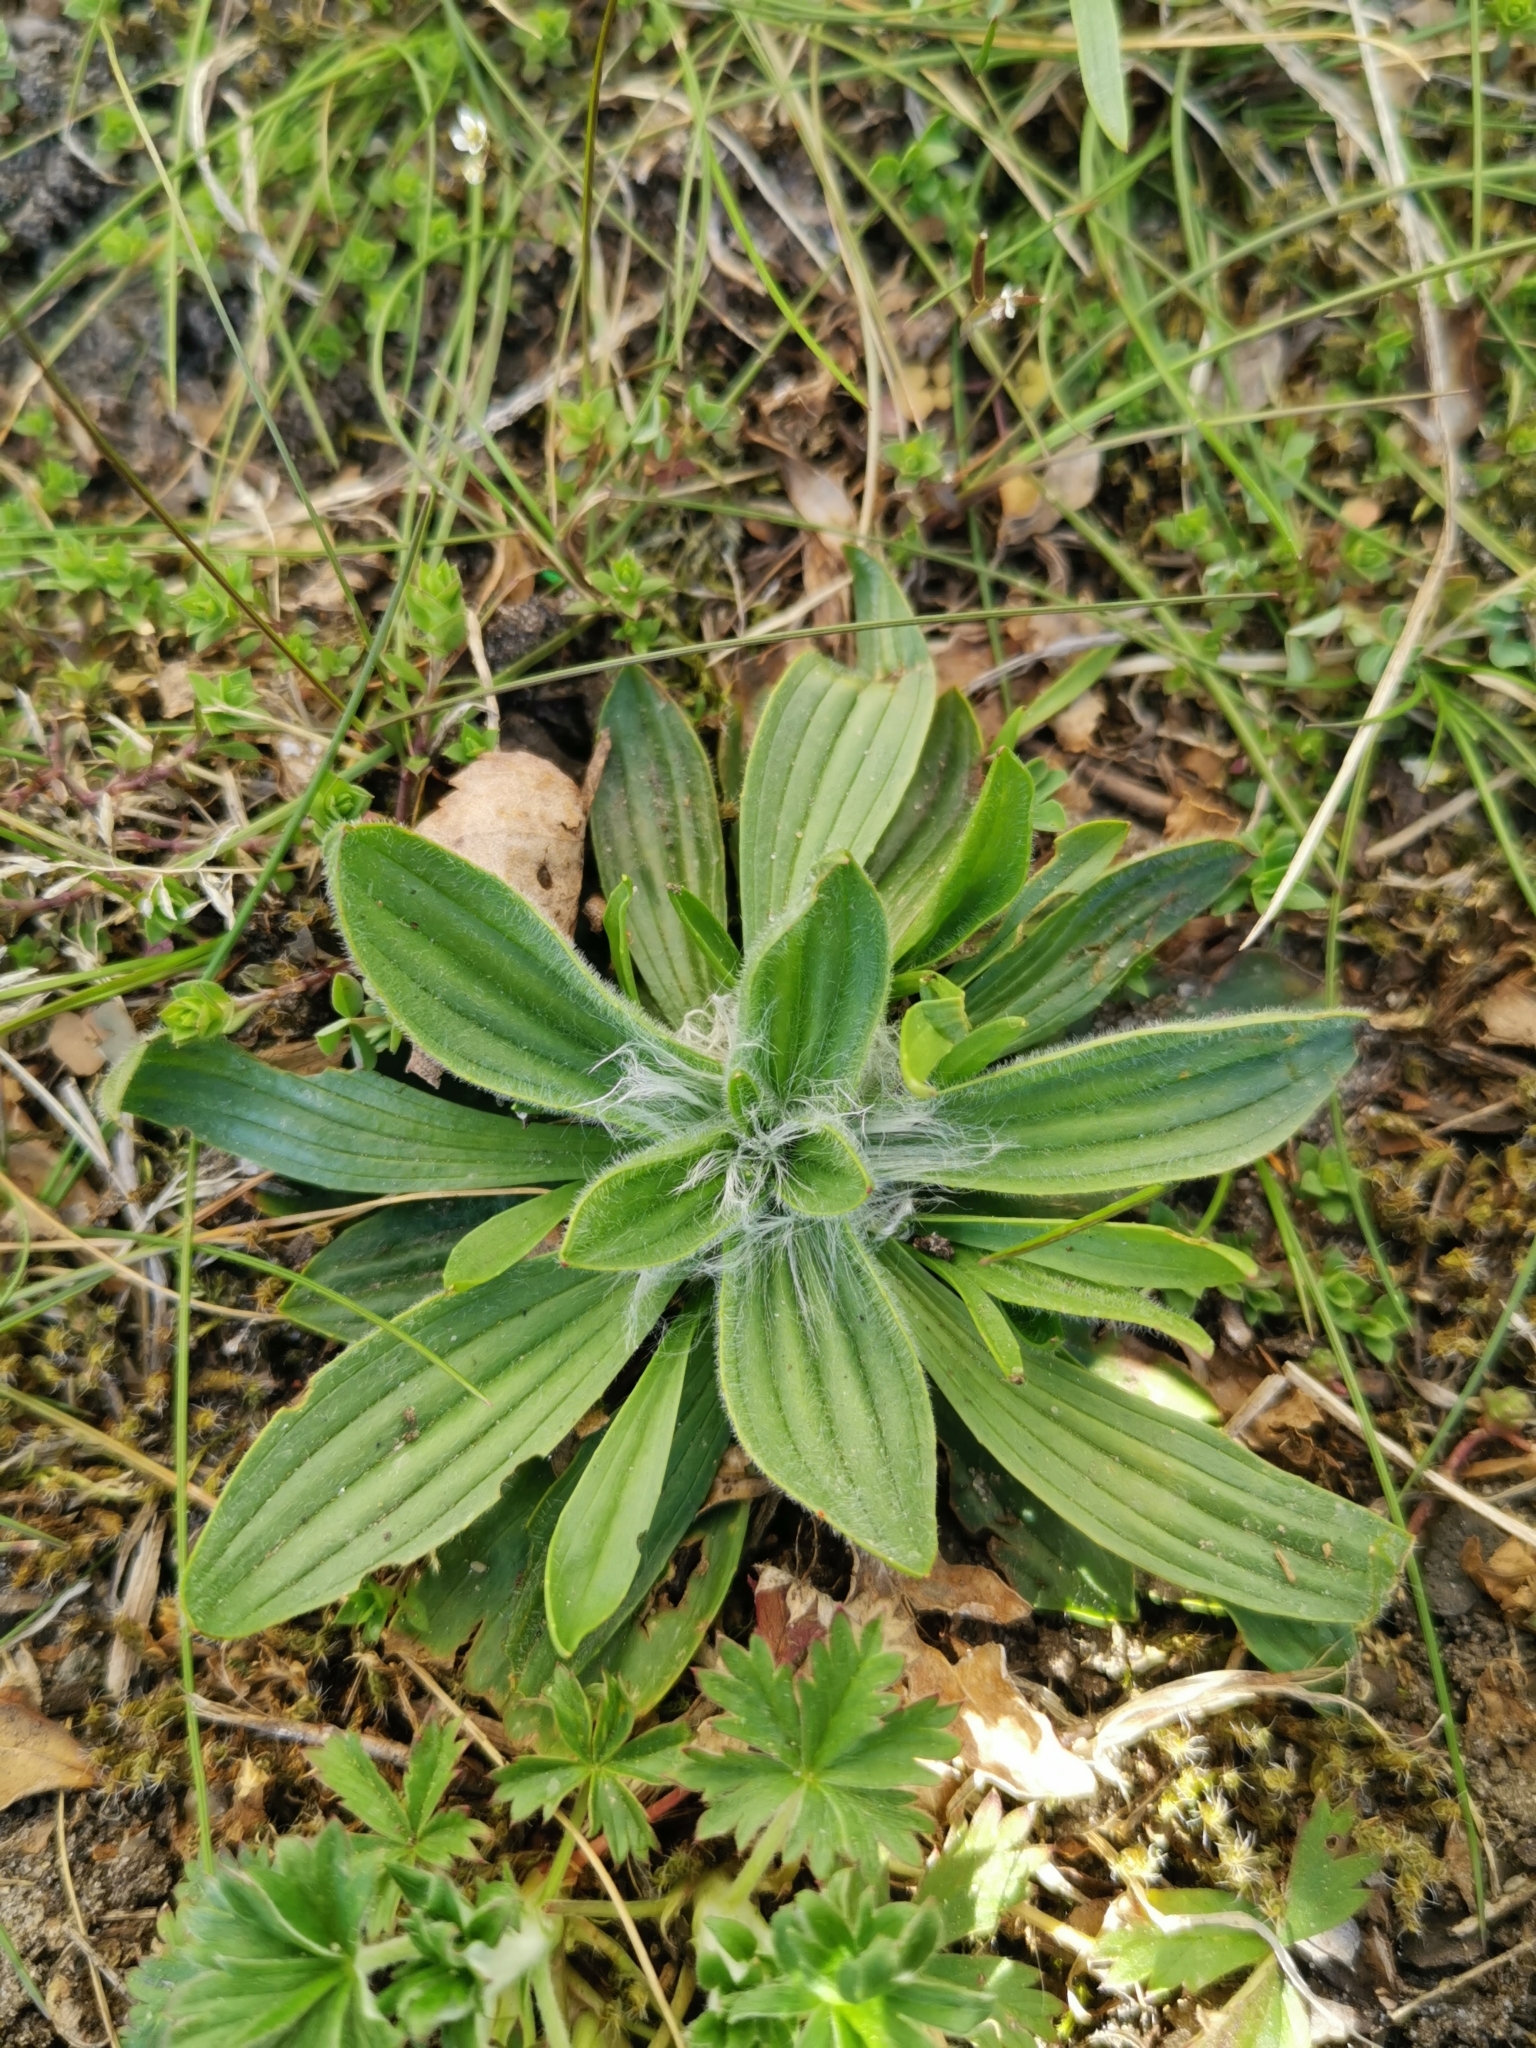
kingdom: Plantae
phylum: Tracheophyta
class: Magnoliopsida
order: Lamiales
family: Plantaginaceae
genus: Plantago
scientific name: Plantago lanceolata
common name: Ribwort plantain
